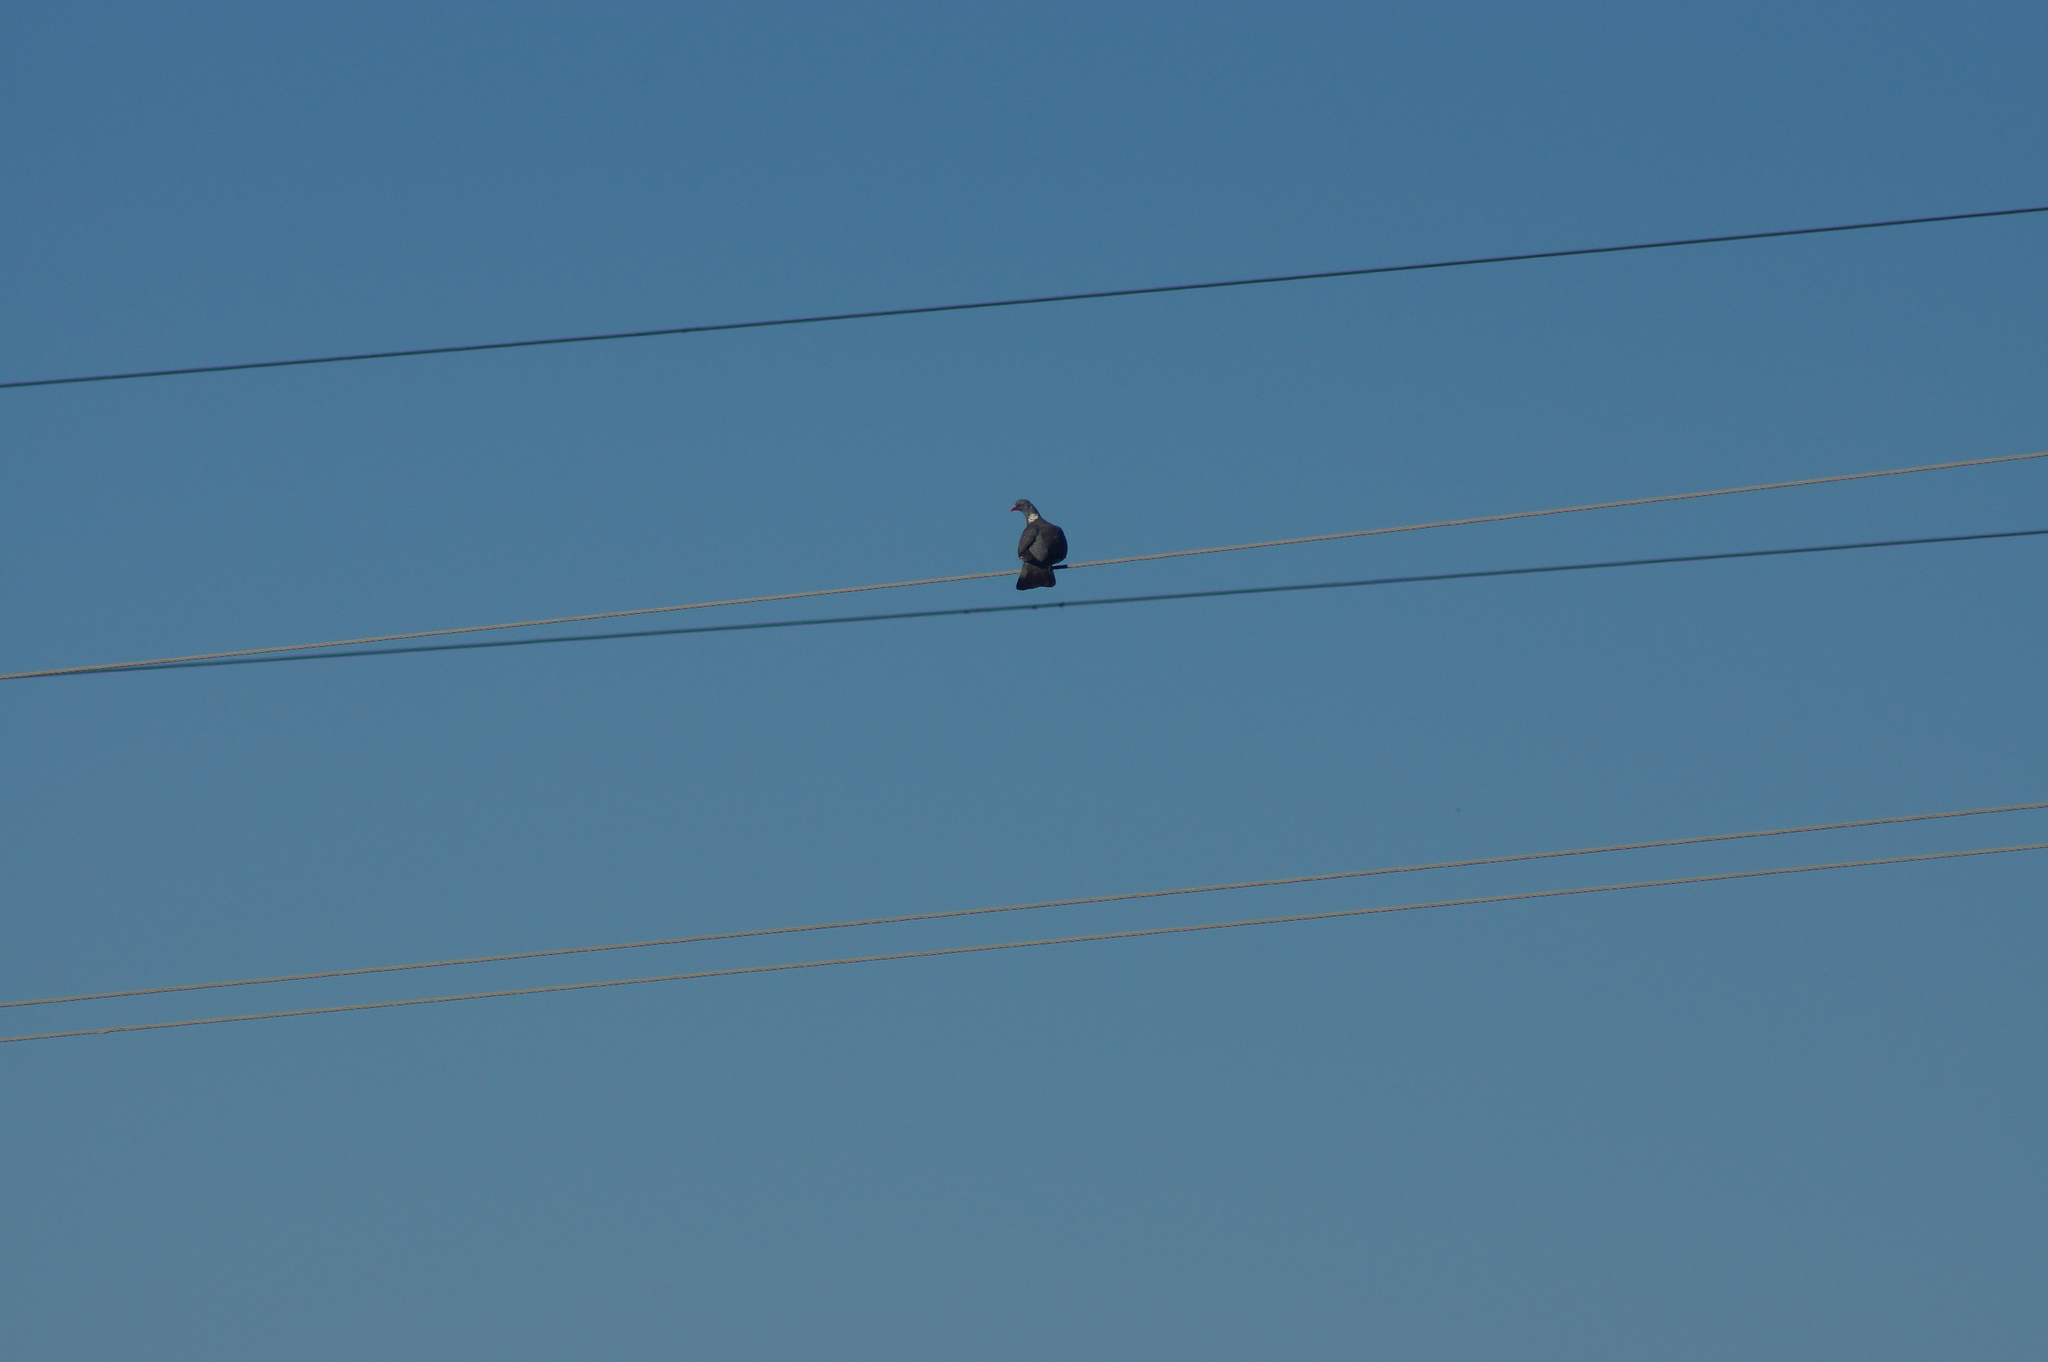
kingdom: Animalia
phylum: Chordata
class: Aves
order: Columbiformes
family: Columbidae
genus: Columba
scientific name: Columba palumbus
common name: Common wood pigeon
